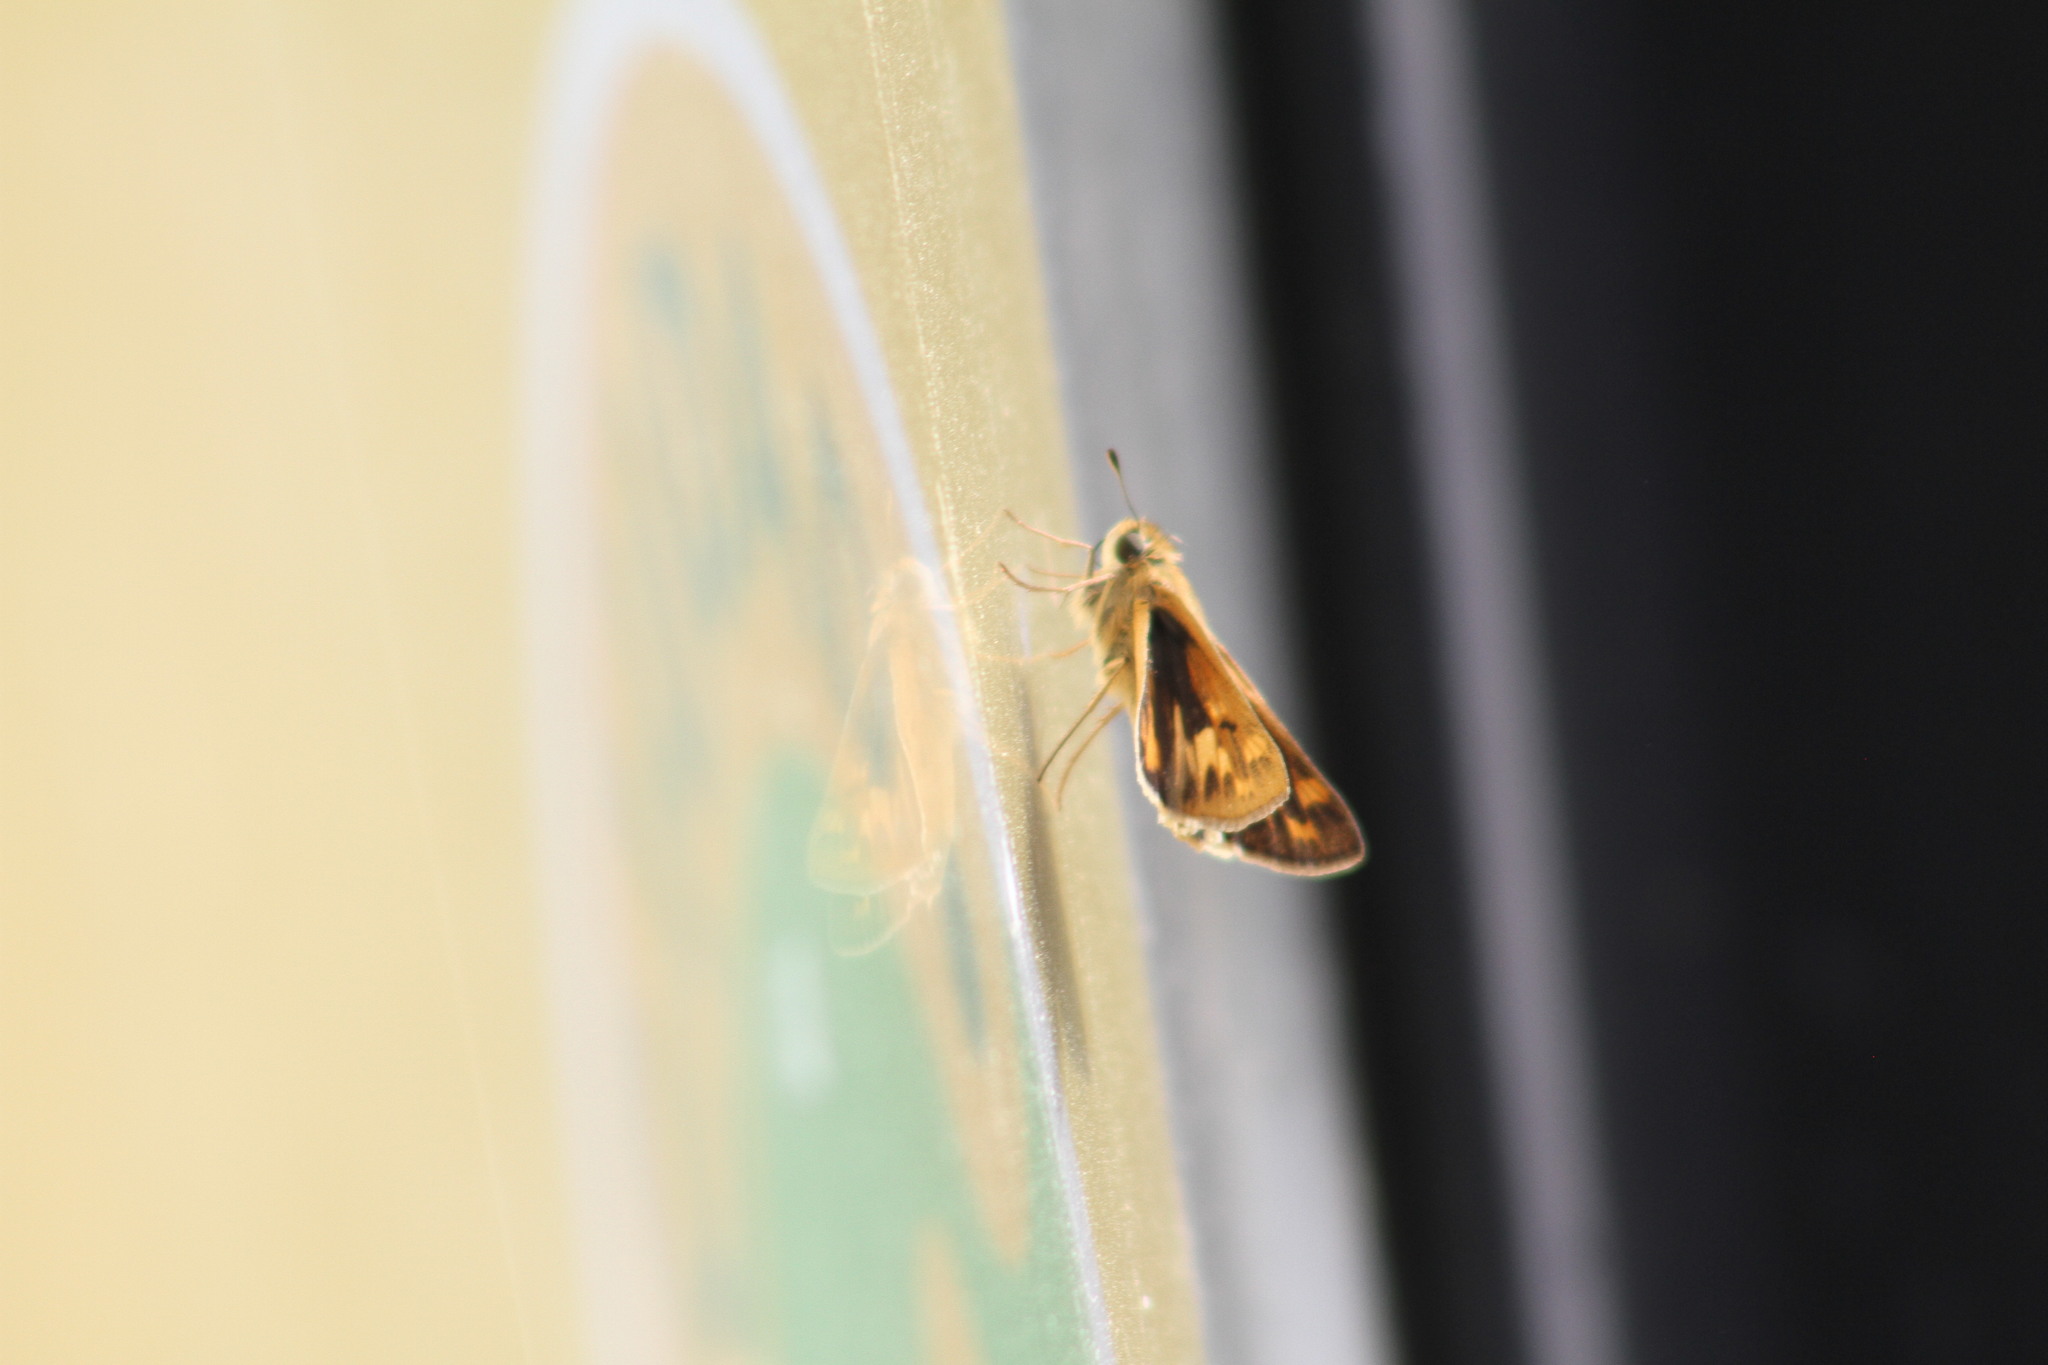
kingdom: Animalia
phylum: Arthropoda
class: Insecta
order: Lepidoptera
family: Hesperiidae
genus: Hylephila
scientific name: Hylephila phyleus
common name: Fiery skipper
